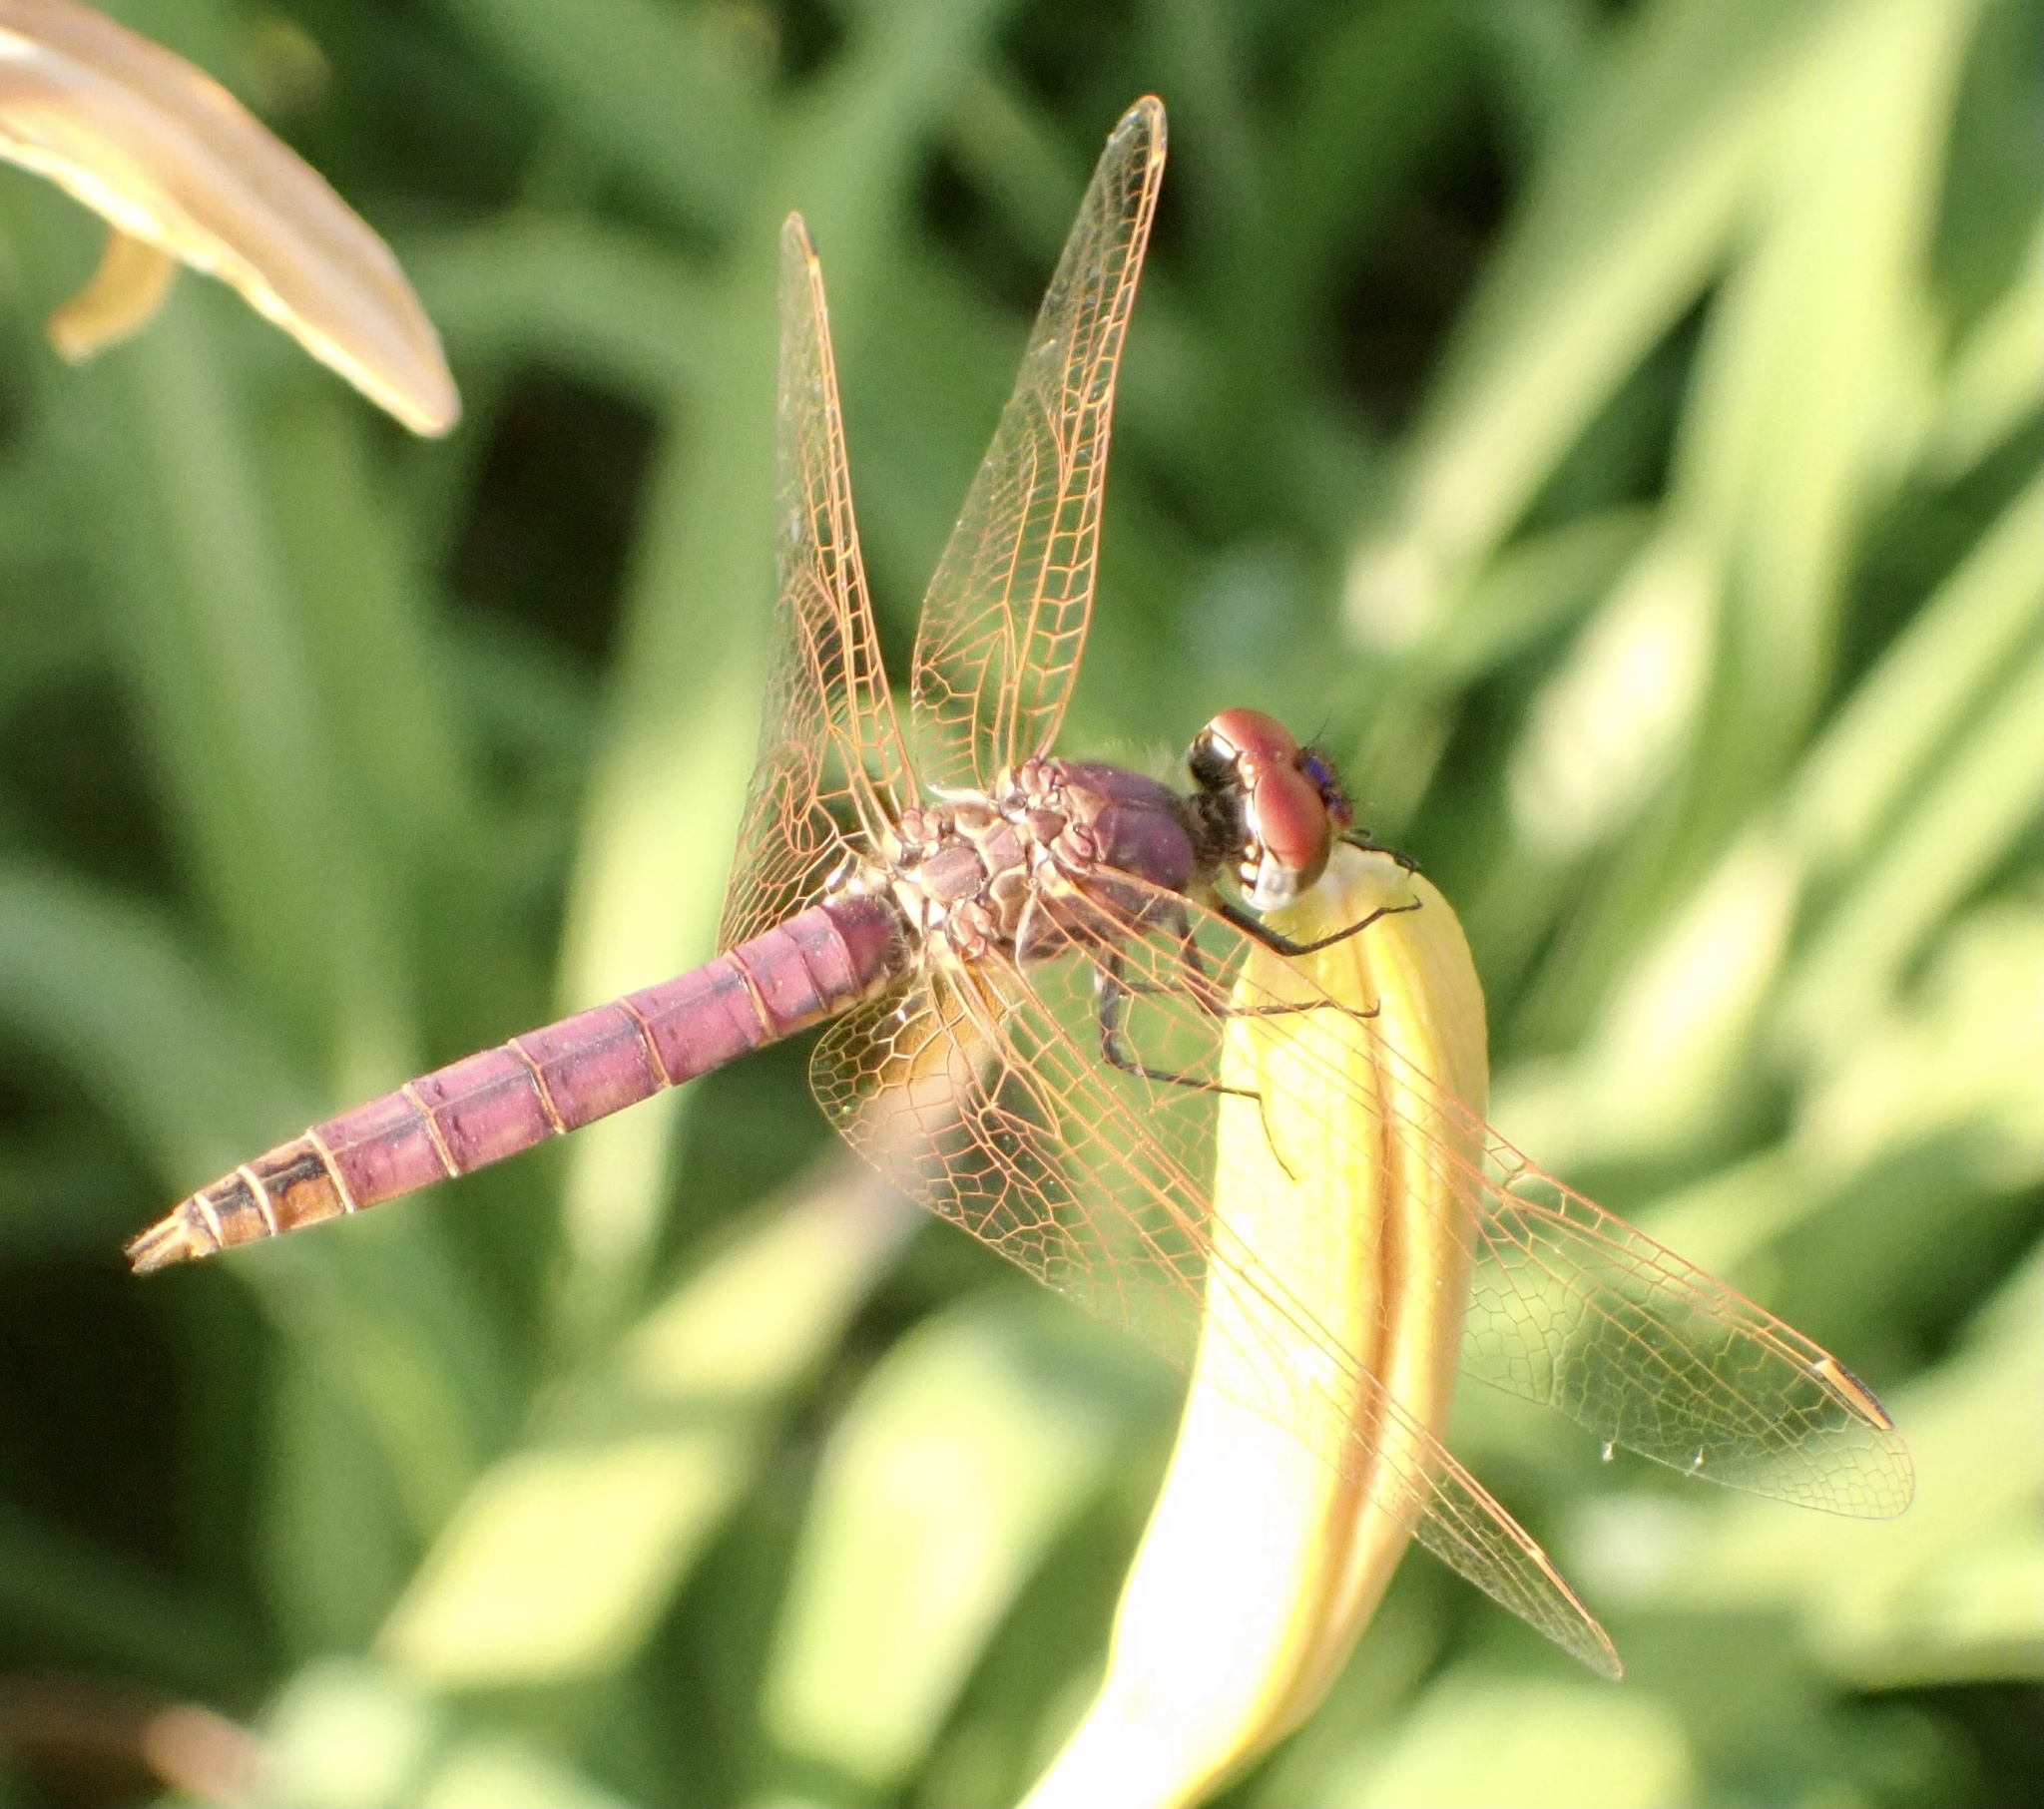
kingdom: Animalia
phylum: Arthropoda
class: Insecta
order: Odonata
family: Libellulidae
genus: Trithemis
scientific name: Trithemis annulata
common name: Violet dropwing
